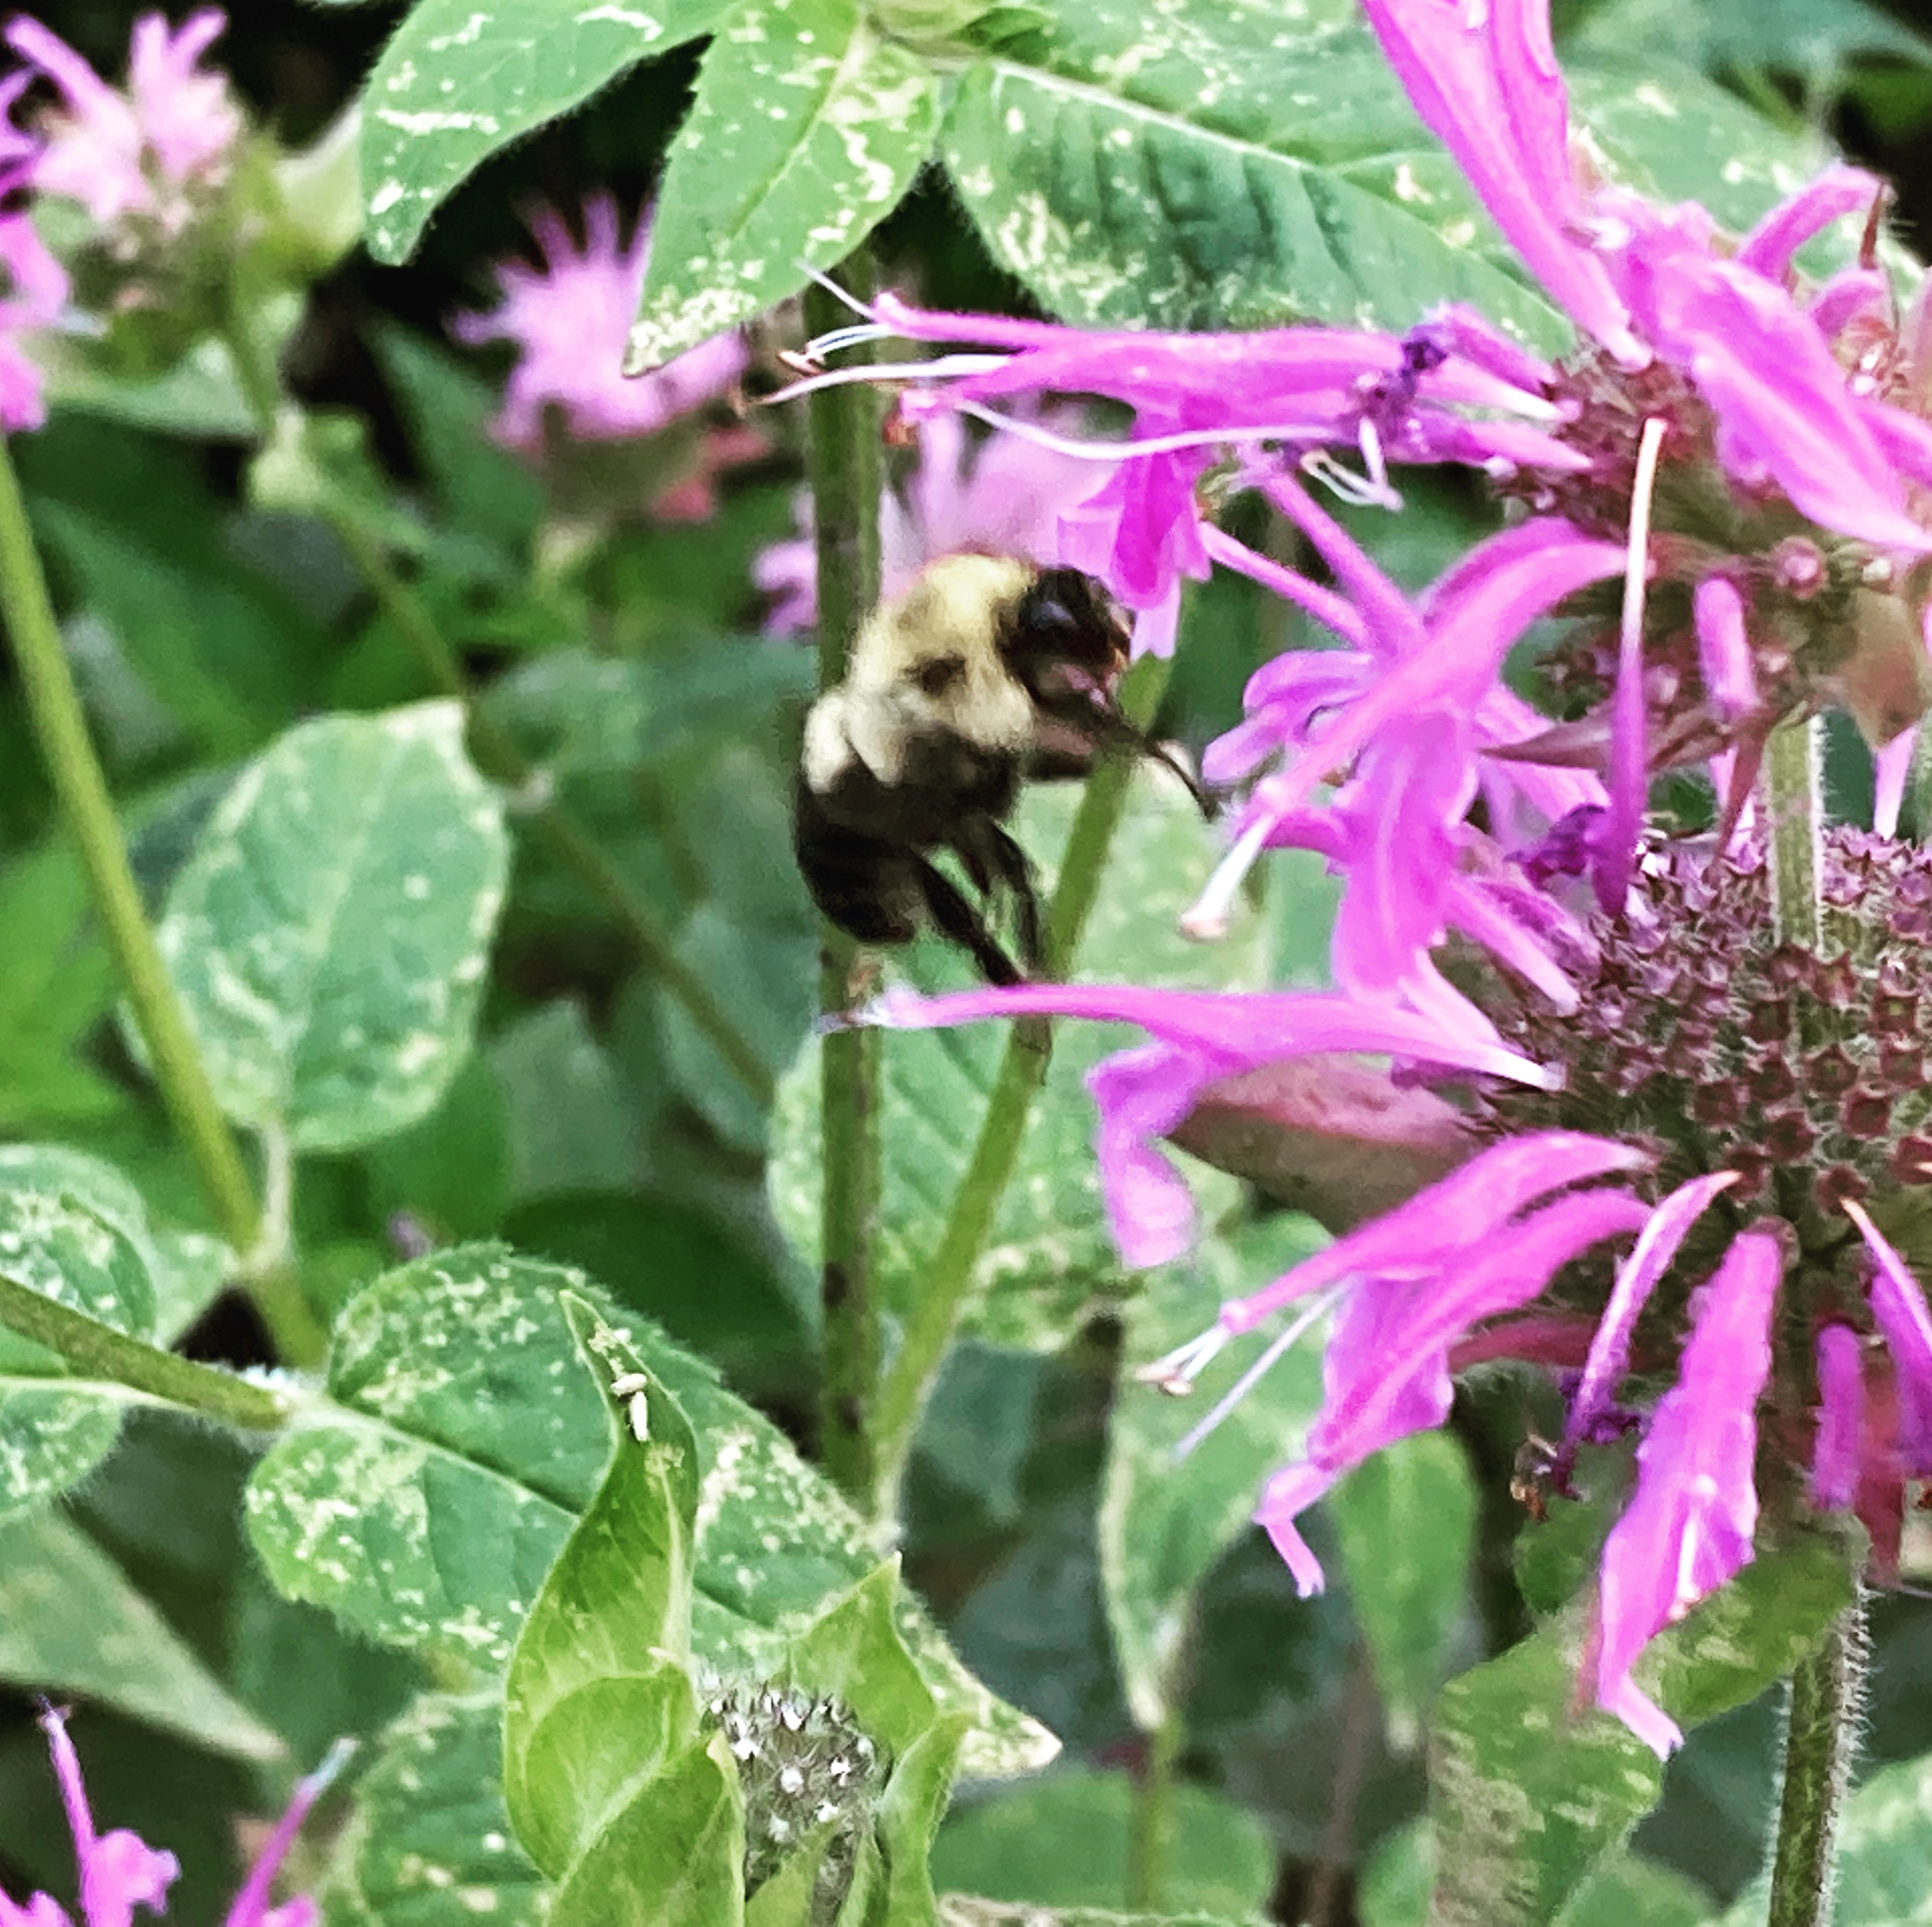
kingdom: Animalia
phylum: Arthropoda
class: Insecta
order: Hymenoptera
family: Apidae
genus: Bombus
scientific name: Bombus bimaculatus
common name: Two-spotted bumble bee
